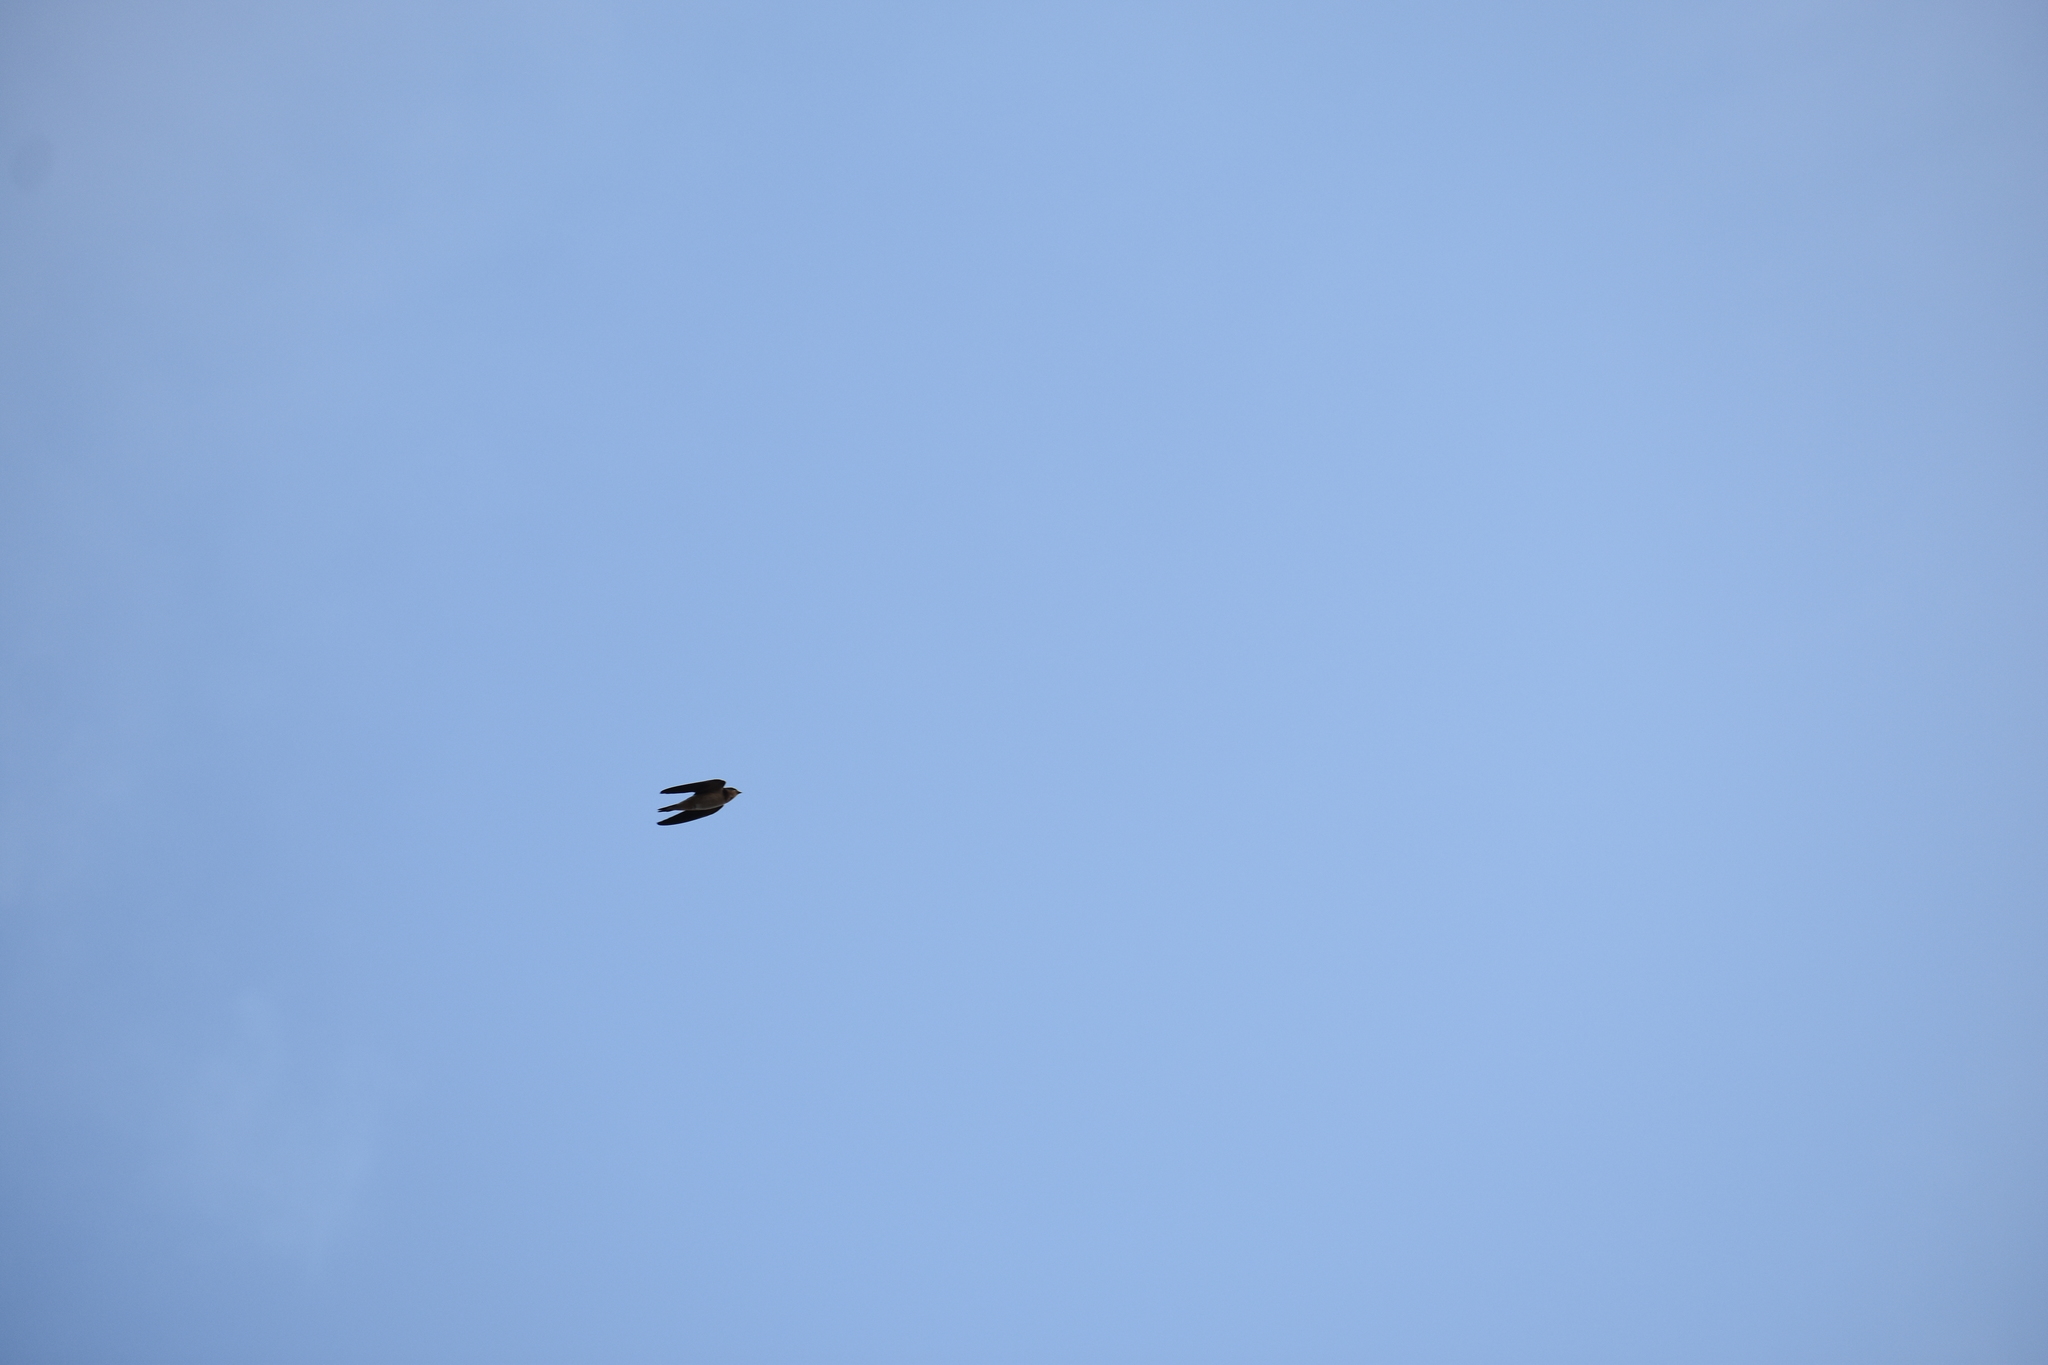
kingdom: Animalia
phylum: Chordata
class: Aves
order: Passeriformes
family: Hirundinidae
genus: Hirundo
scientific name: Hirundo rustica
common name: Barn swallow
